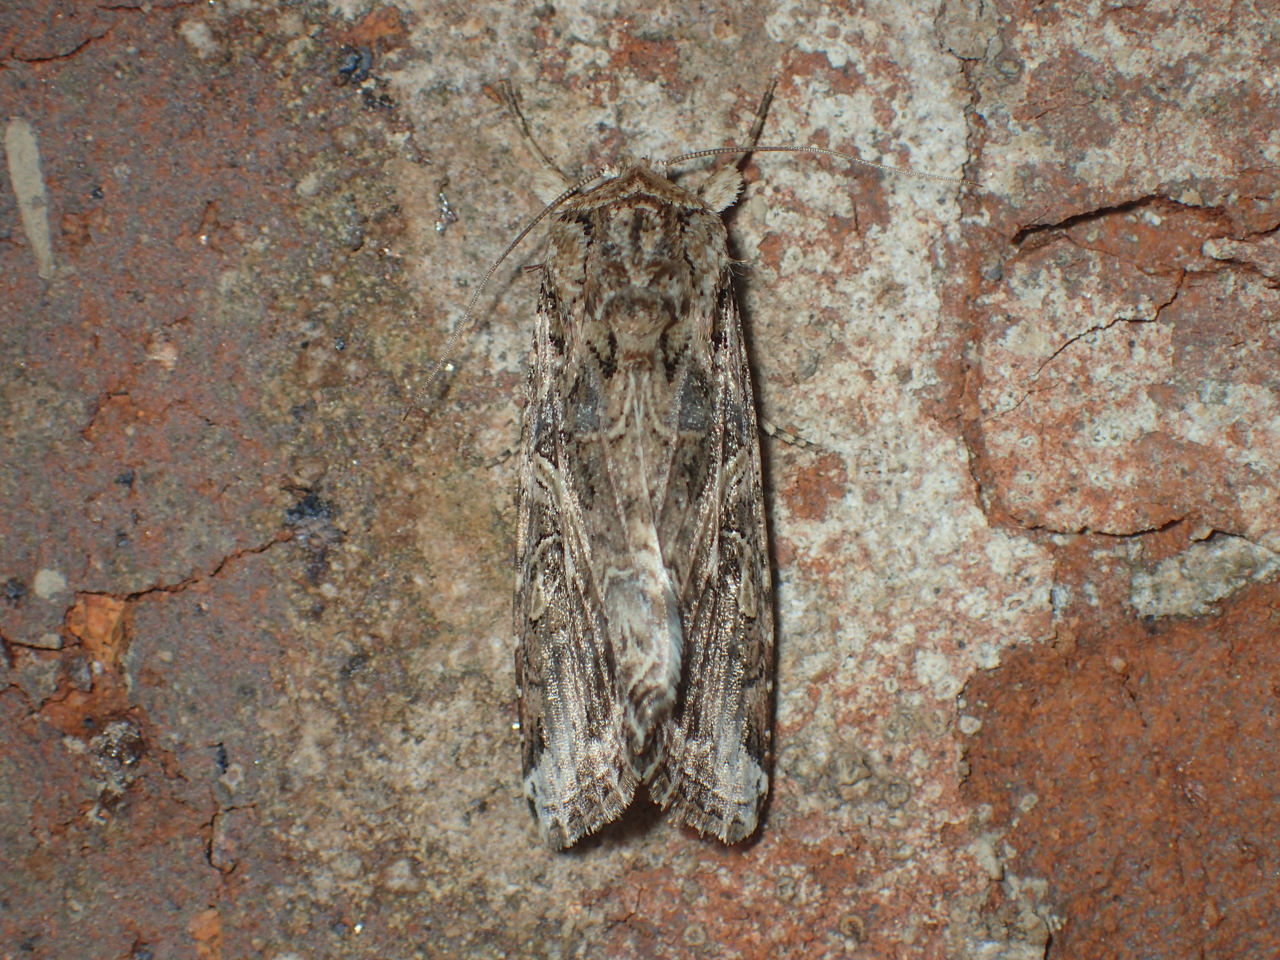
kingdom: Animalia
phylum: Arthropoda
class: Insecta
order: Lepidoptera
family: Noctuidae
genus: Spodoptera
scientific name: Spodoptera ornithogalli
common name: Yellow-striped armyworm
